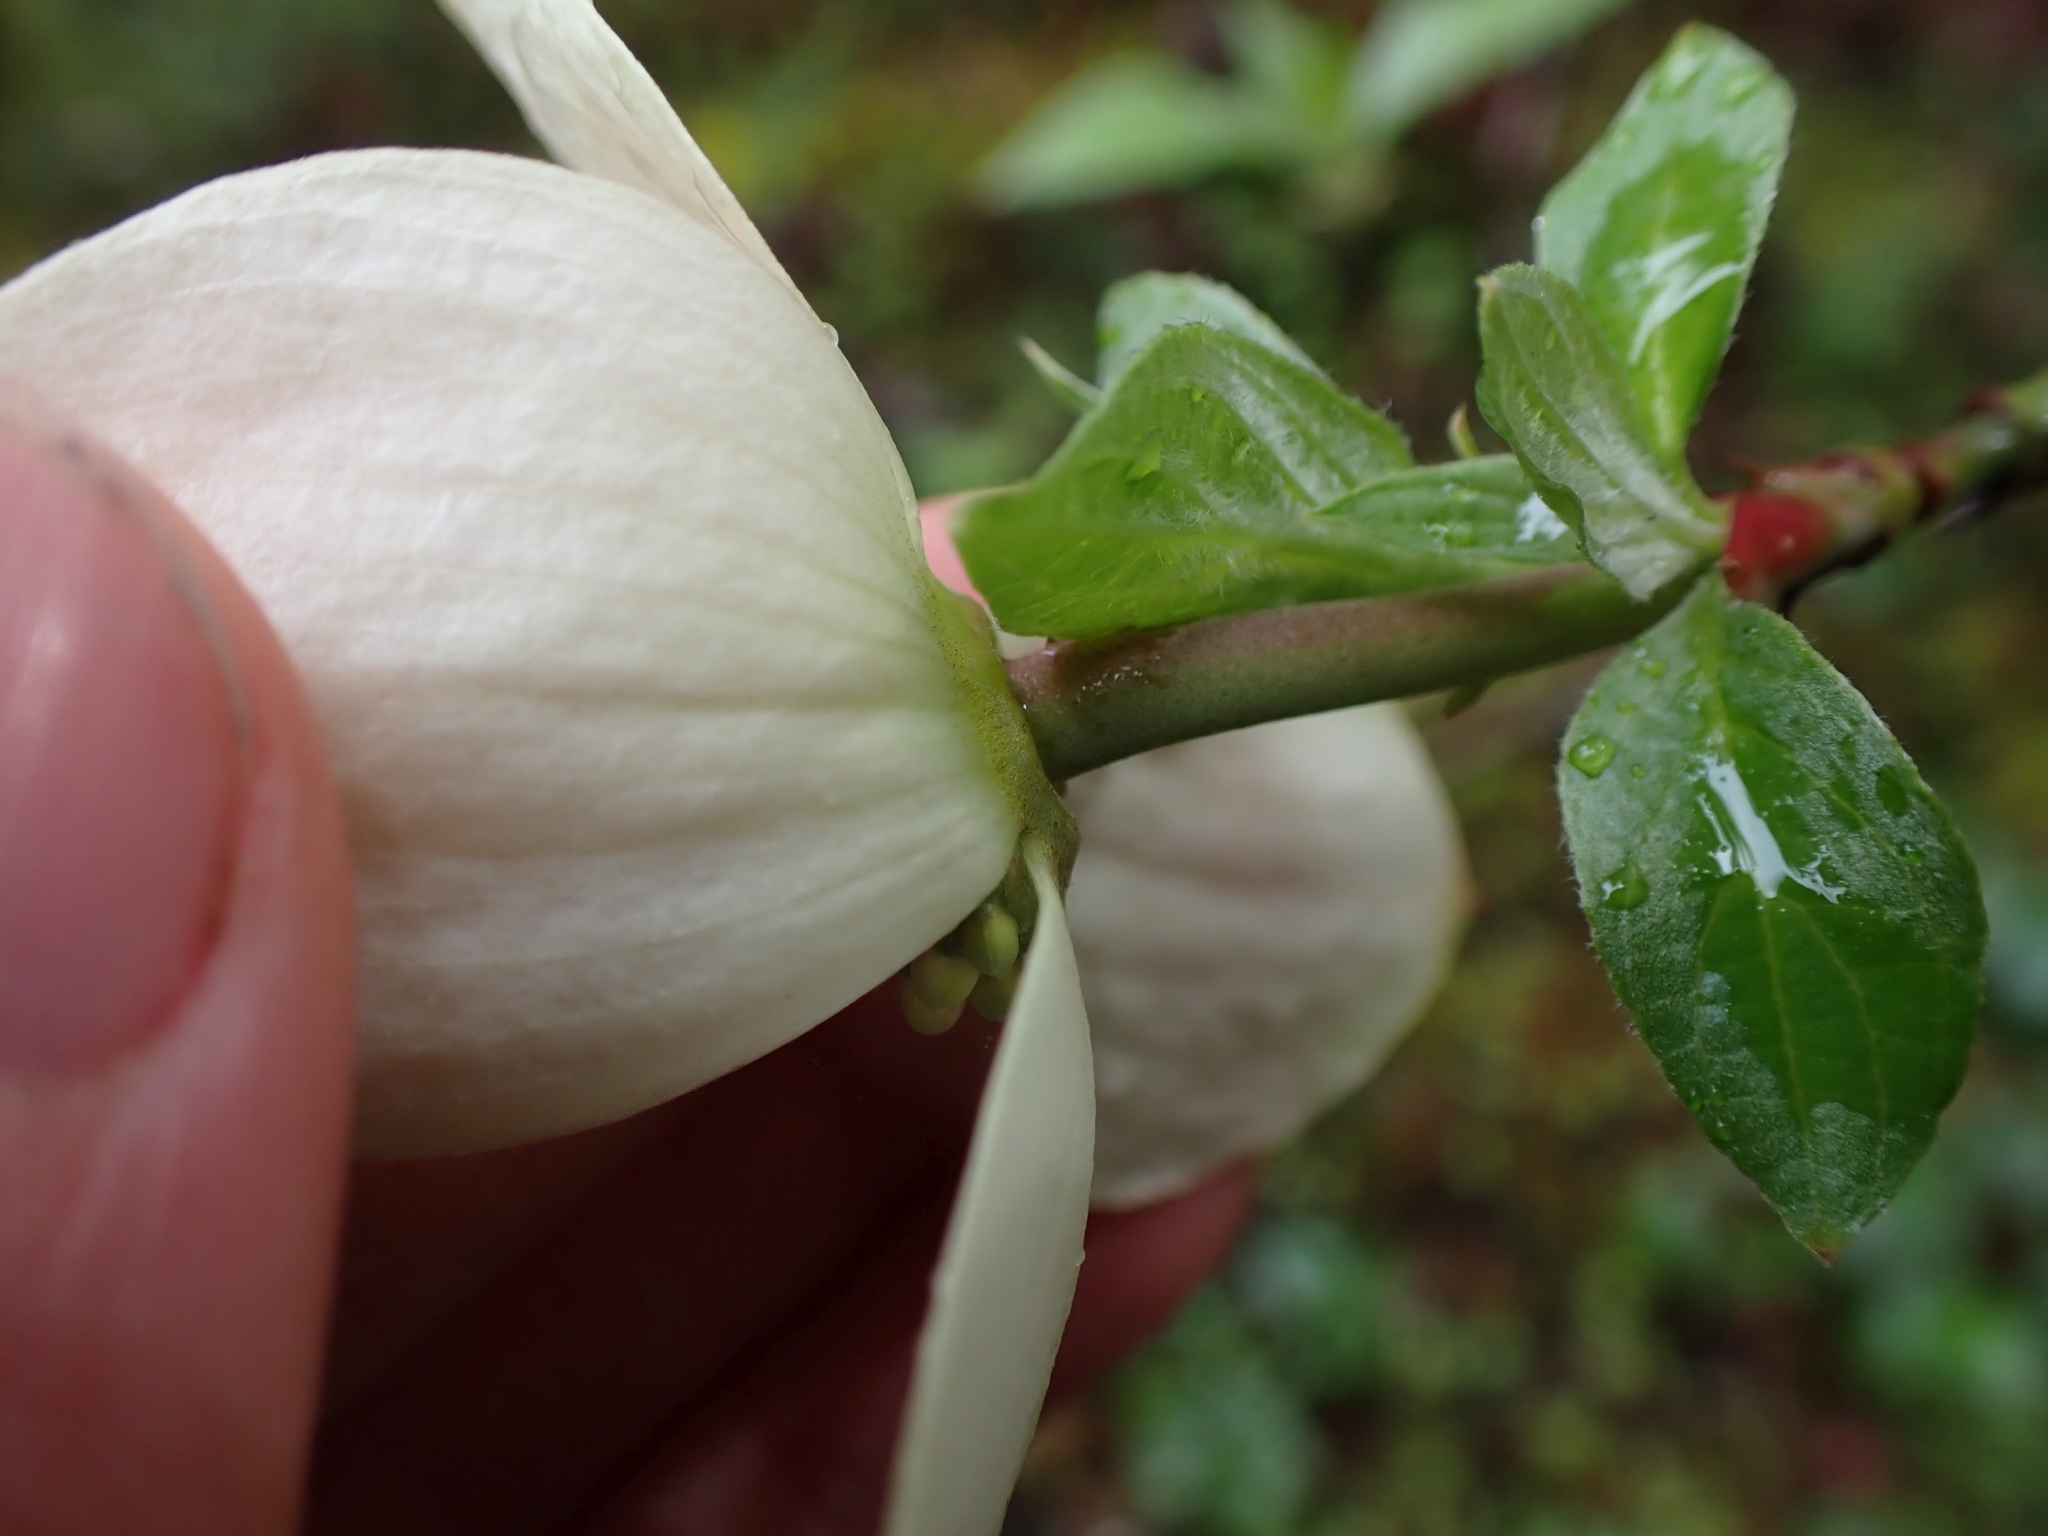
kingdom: Plantae
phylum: Tracheophyta
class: Magnoliopsida
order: Cornales
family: Cornaceae
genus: Cornus
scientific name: Cornus nuttallii
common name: Pacific dogwood
